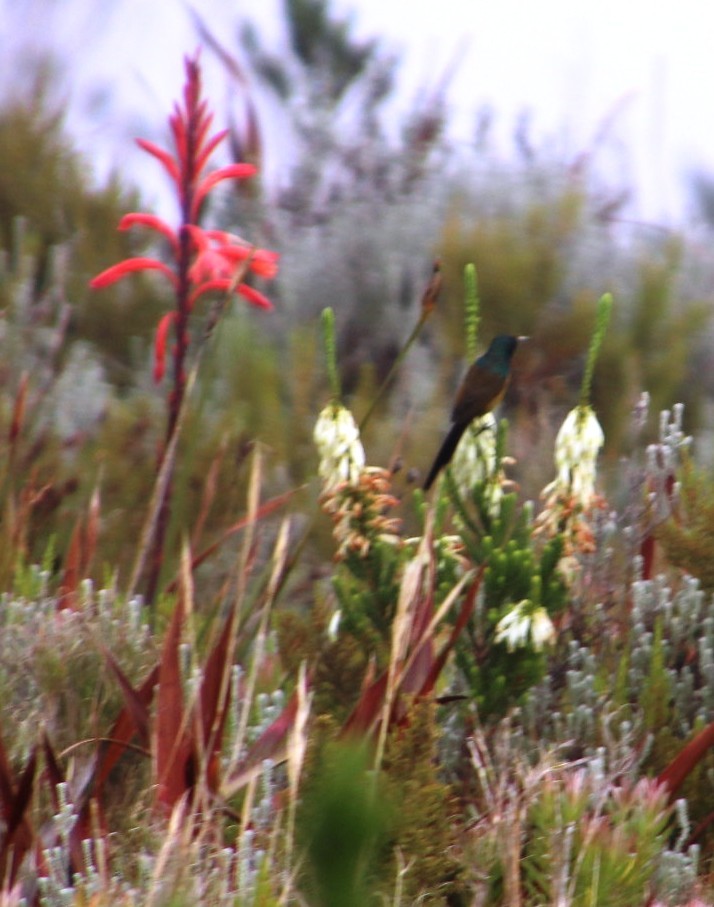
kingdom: Animalia
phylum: Chordata
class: Aves
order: Passeriformes
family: Nectariniidae
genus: Anthobaphes
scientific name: Anthobaphes violacea
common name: Orange-breasted sunbird
